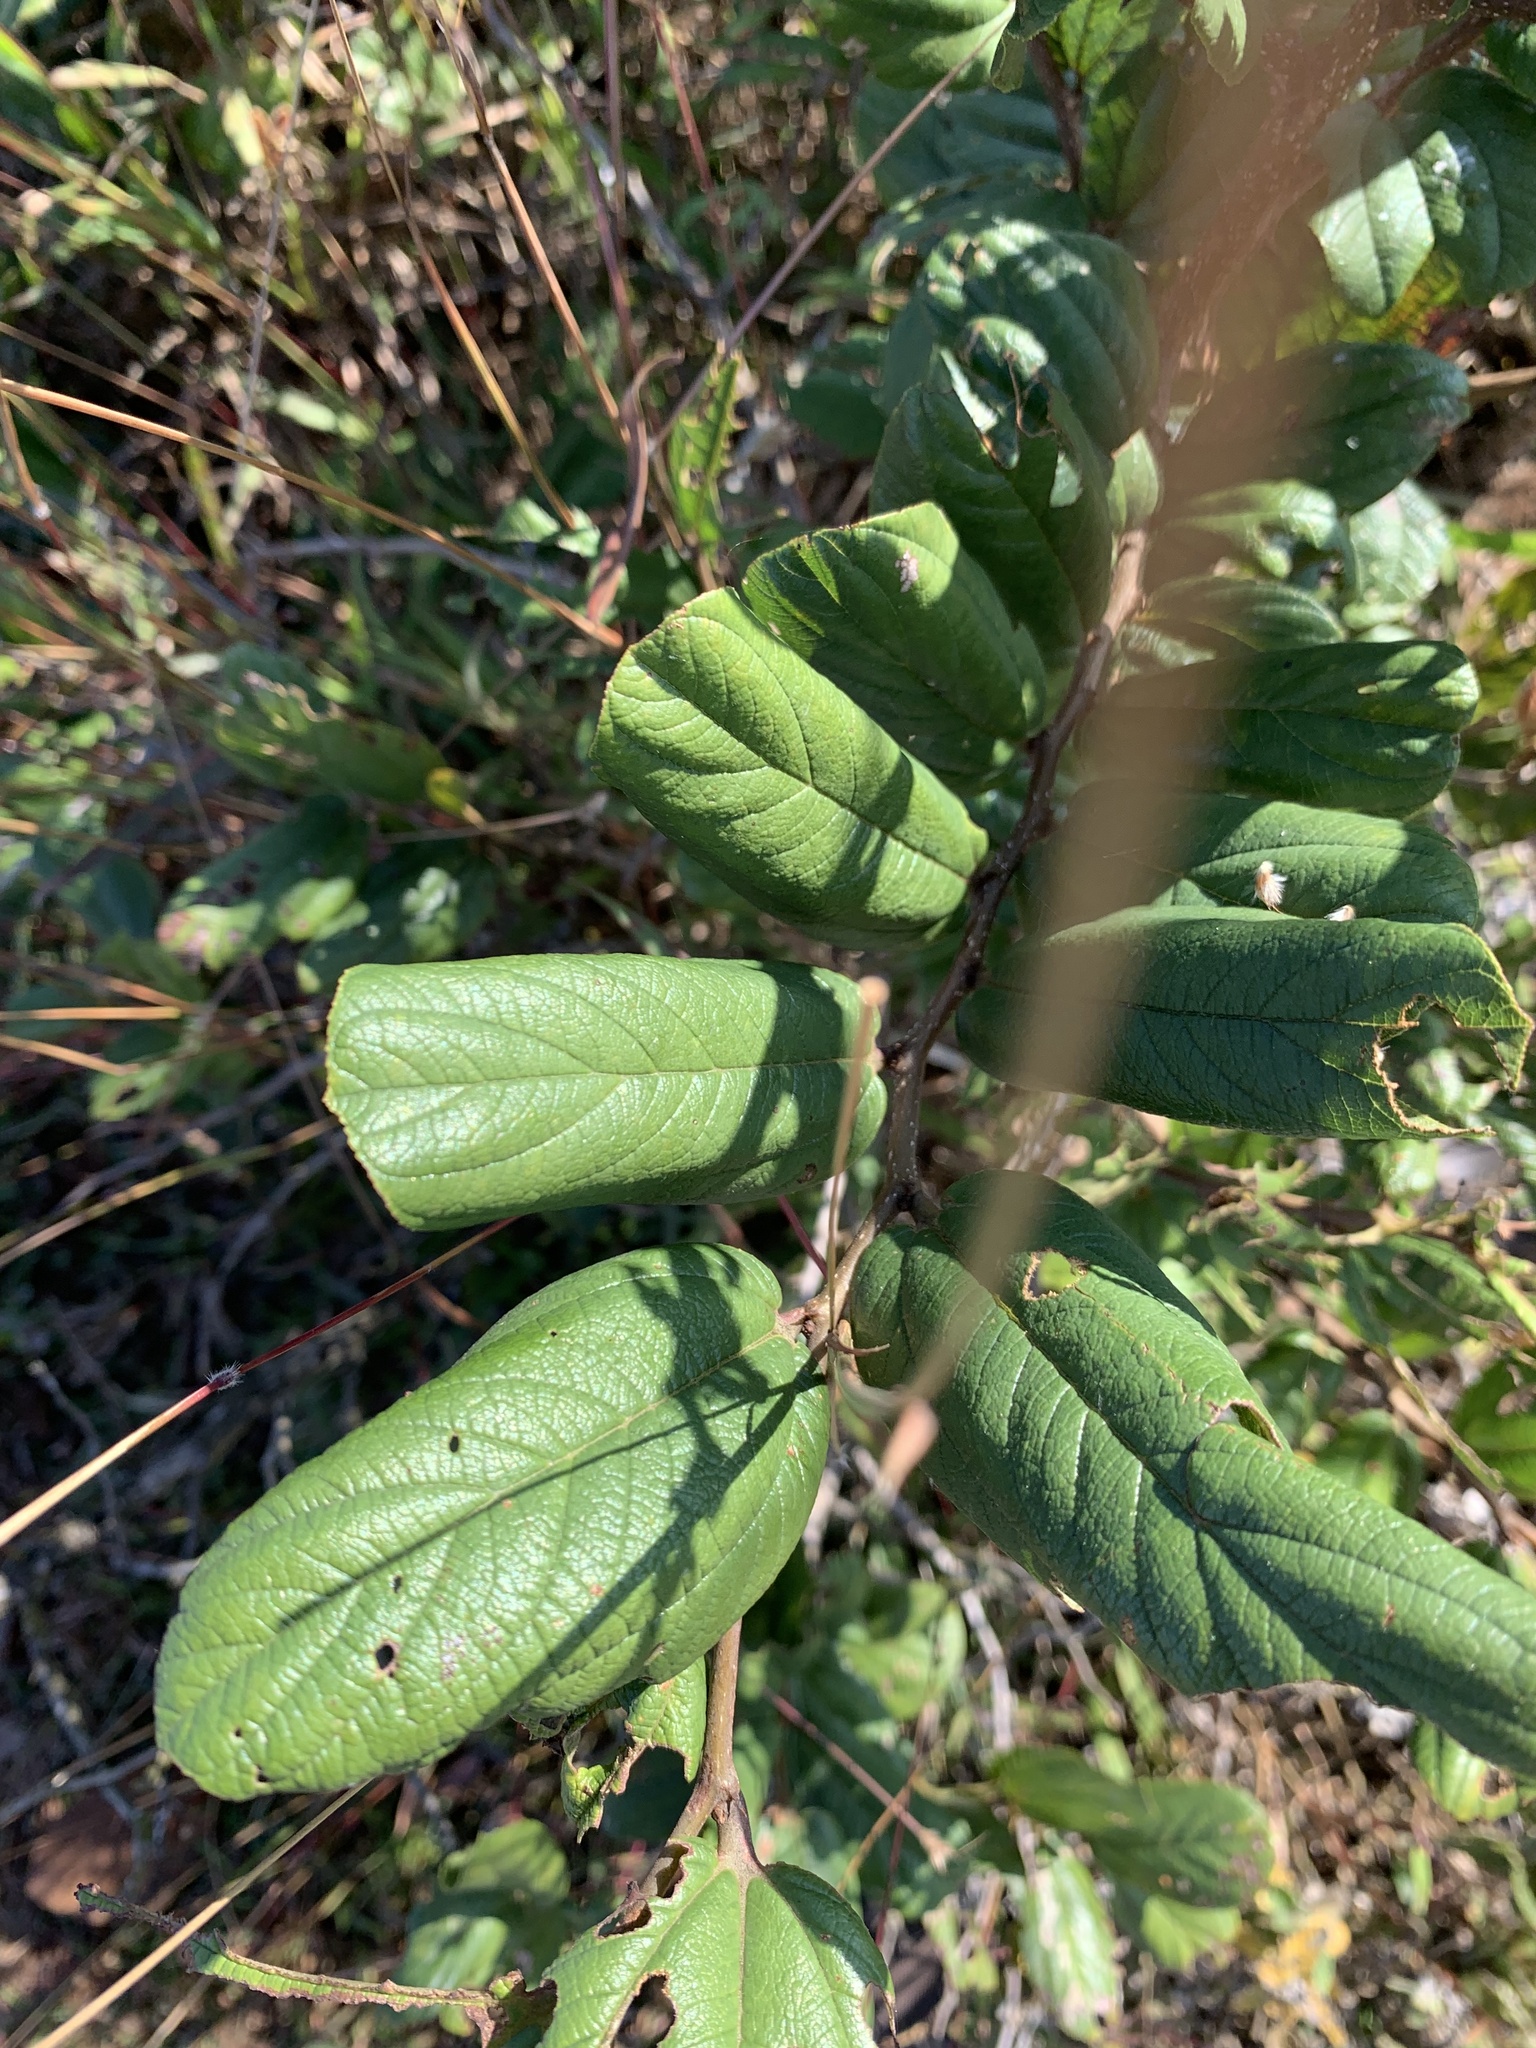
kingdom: Plantae
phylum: Tracheophyta
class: Magnoliopsida
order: Rosales
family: Rhamnaceae
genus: Ziziphus
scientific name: Ziziphus rugosa
